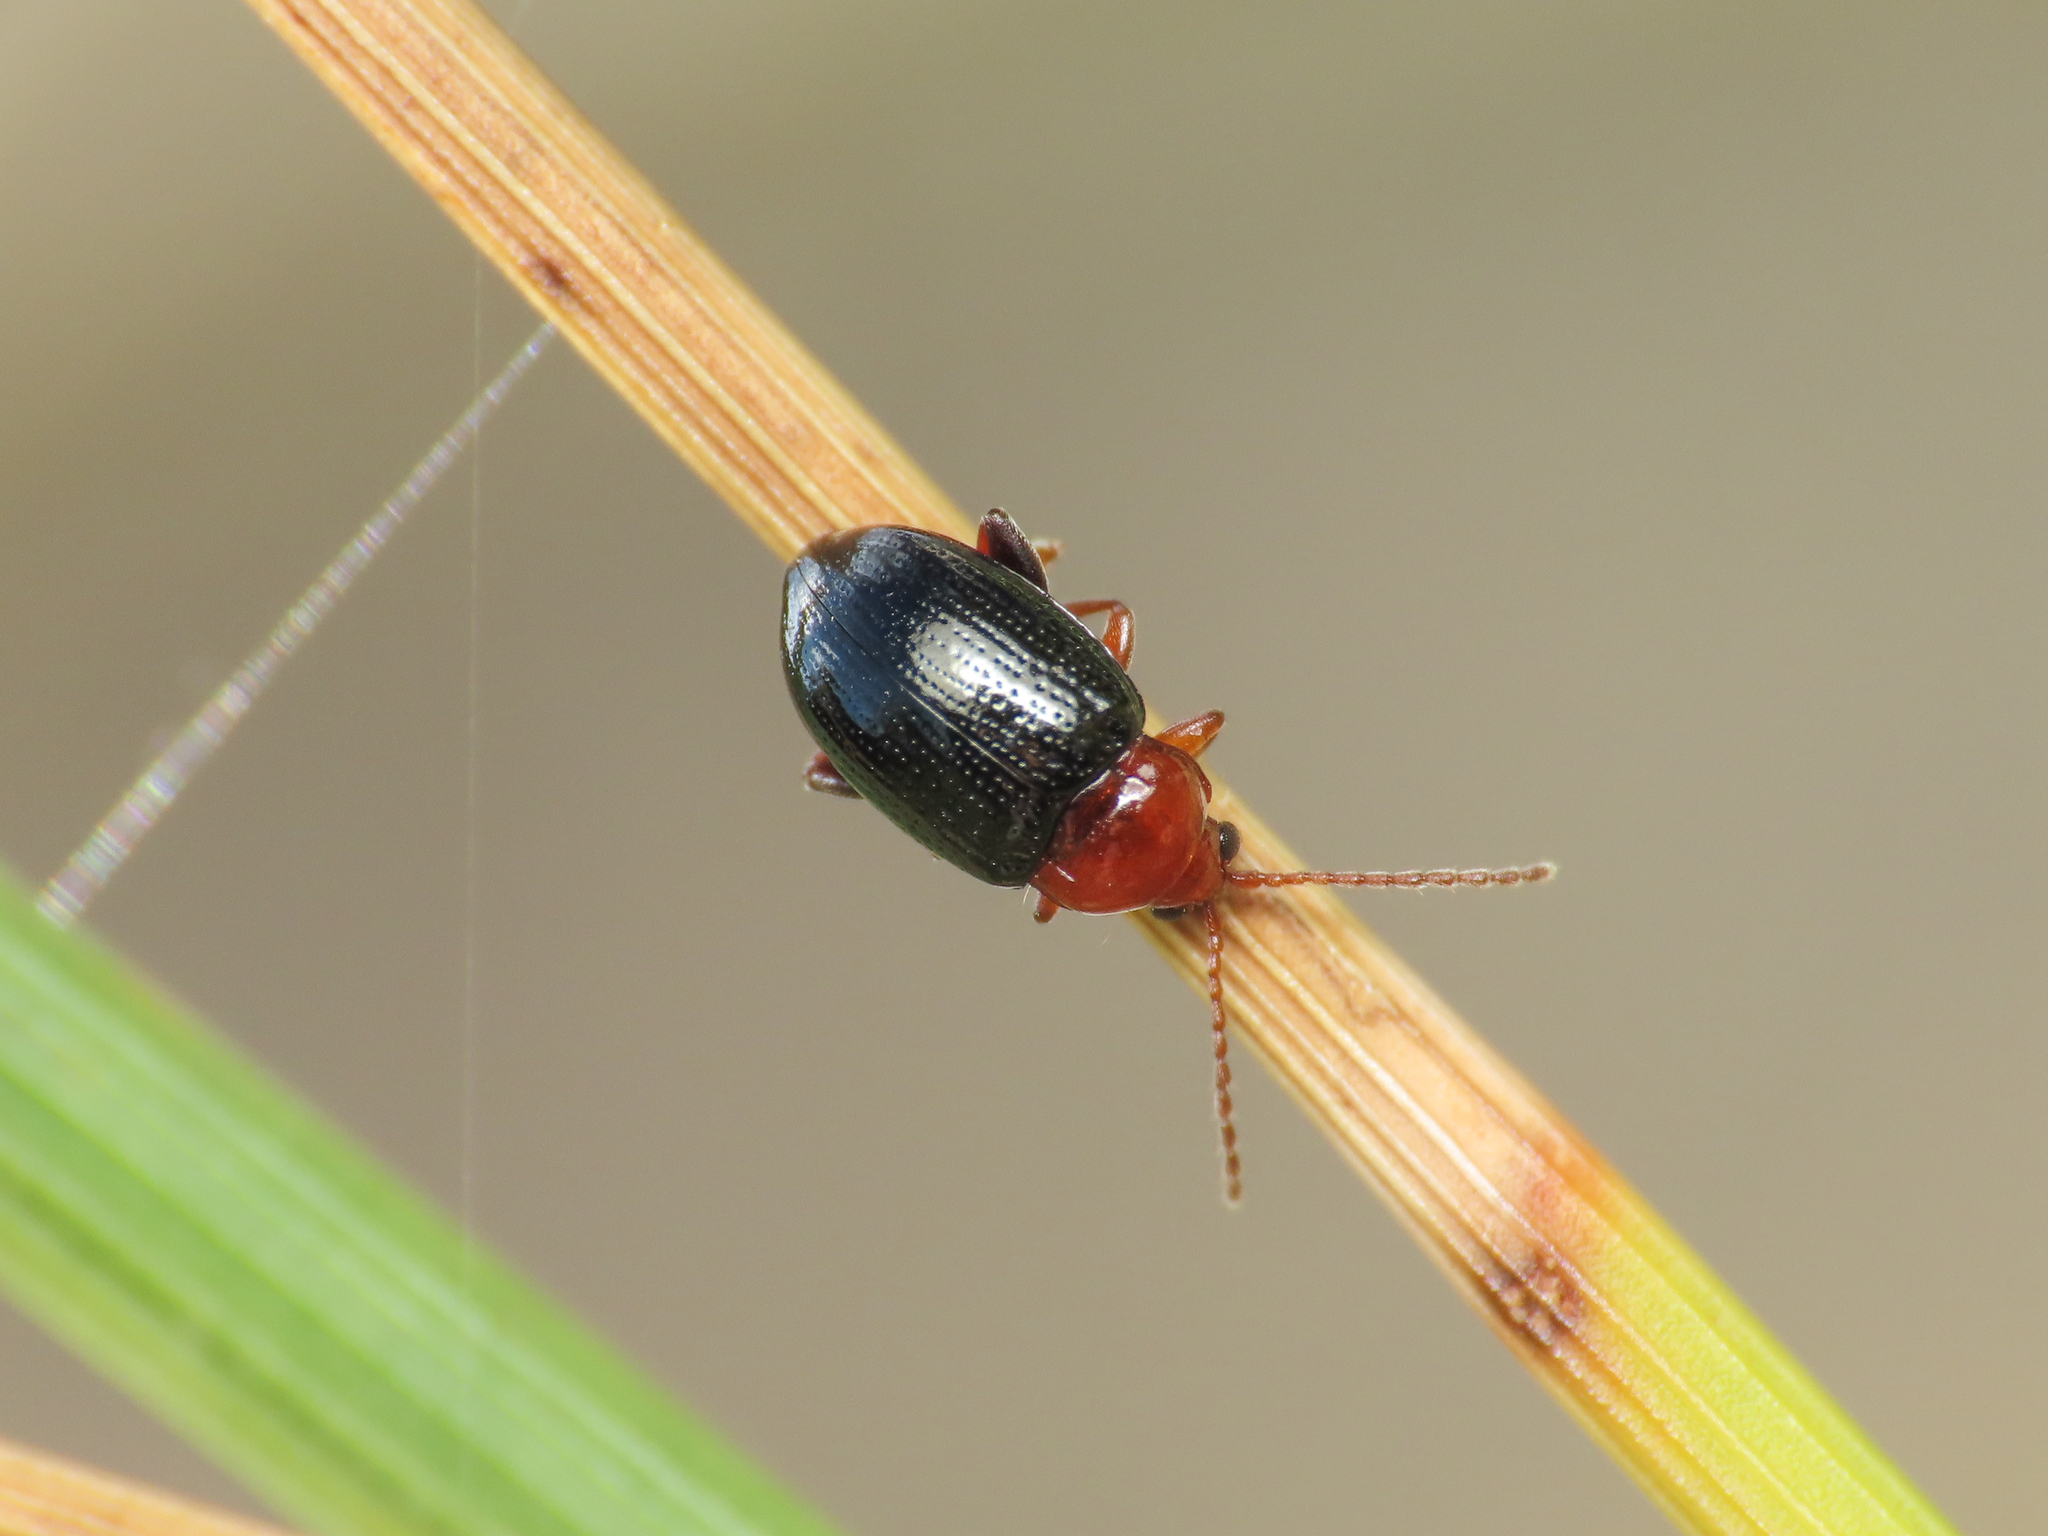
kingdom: Animalia
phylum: Arthropoda
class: Insecta
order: Coleoptera
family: Chrysomelidae
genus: Neocrepidodera
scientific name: Neocrepidodera corpulenta
